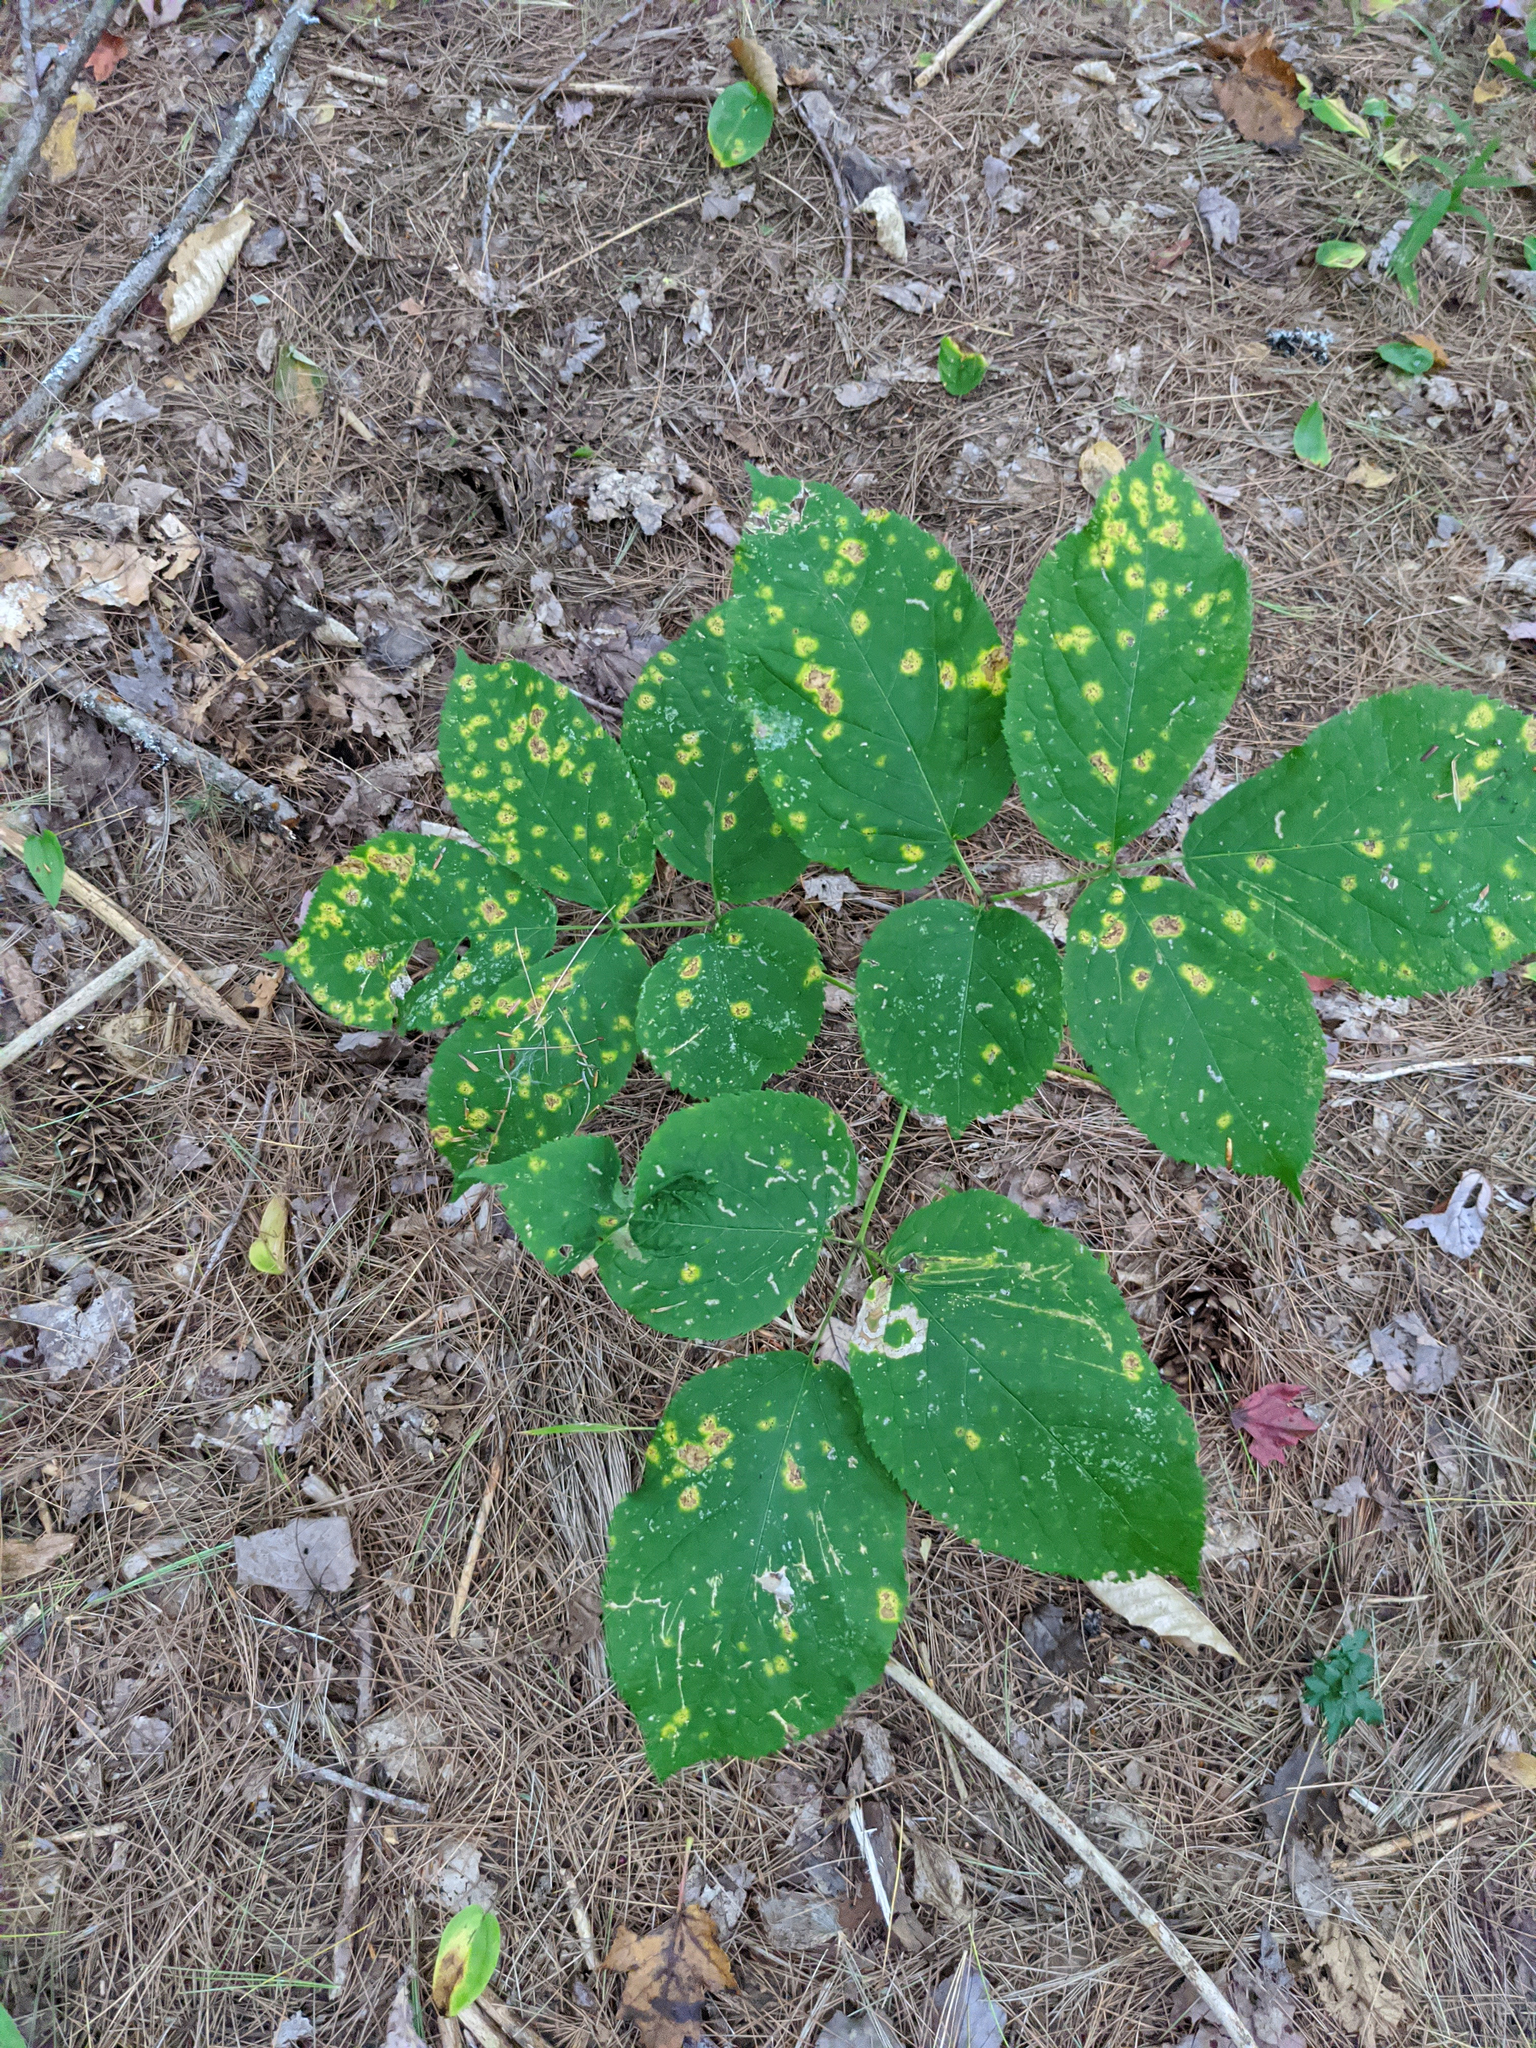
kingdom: Plantae
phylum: Tracheophyta
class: Magnoliopsida
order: Apiales
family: Araliaceae
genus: Aralia
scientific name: Aralia nudicaulis
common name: Wild sarsaparilla
